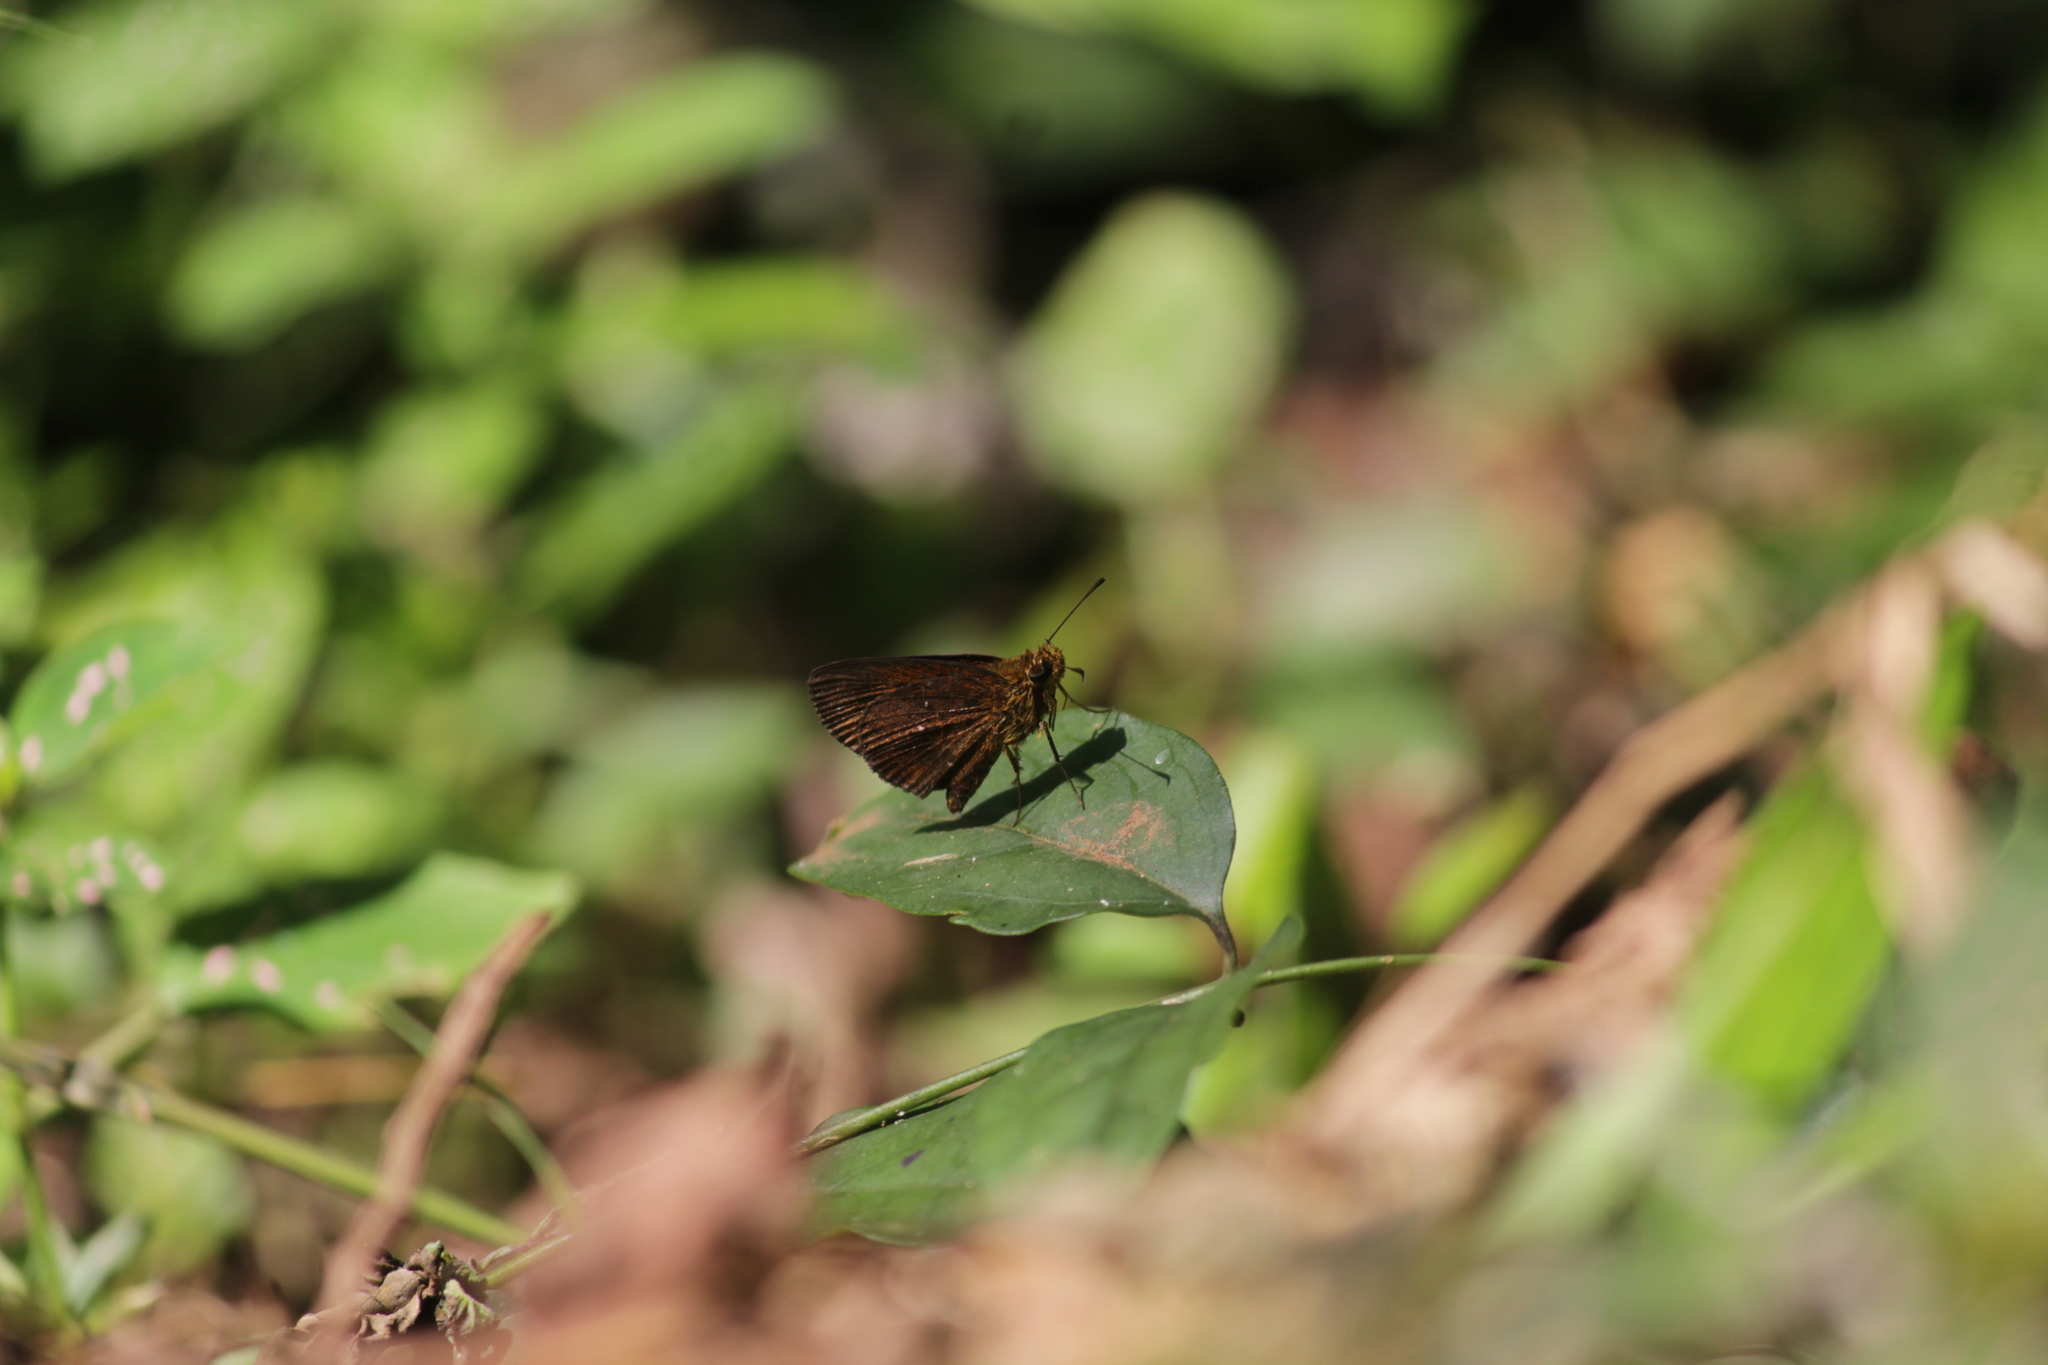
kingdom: Animalia
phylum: Arthropoda
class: Insecta
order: Lepidoptera
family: Hesperiidae
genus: Iambrix
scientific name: Iambrix salsala
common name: Chestnut bob
